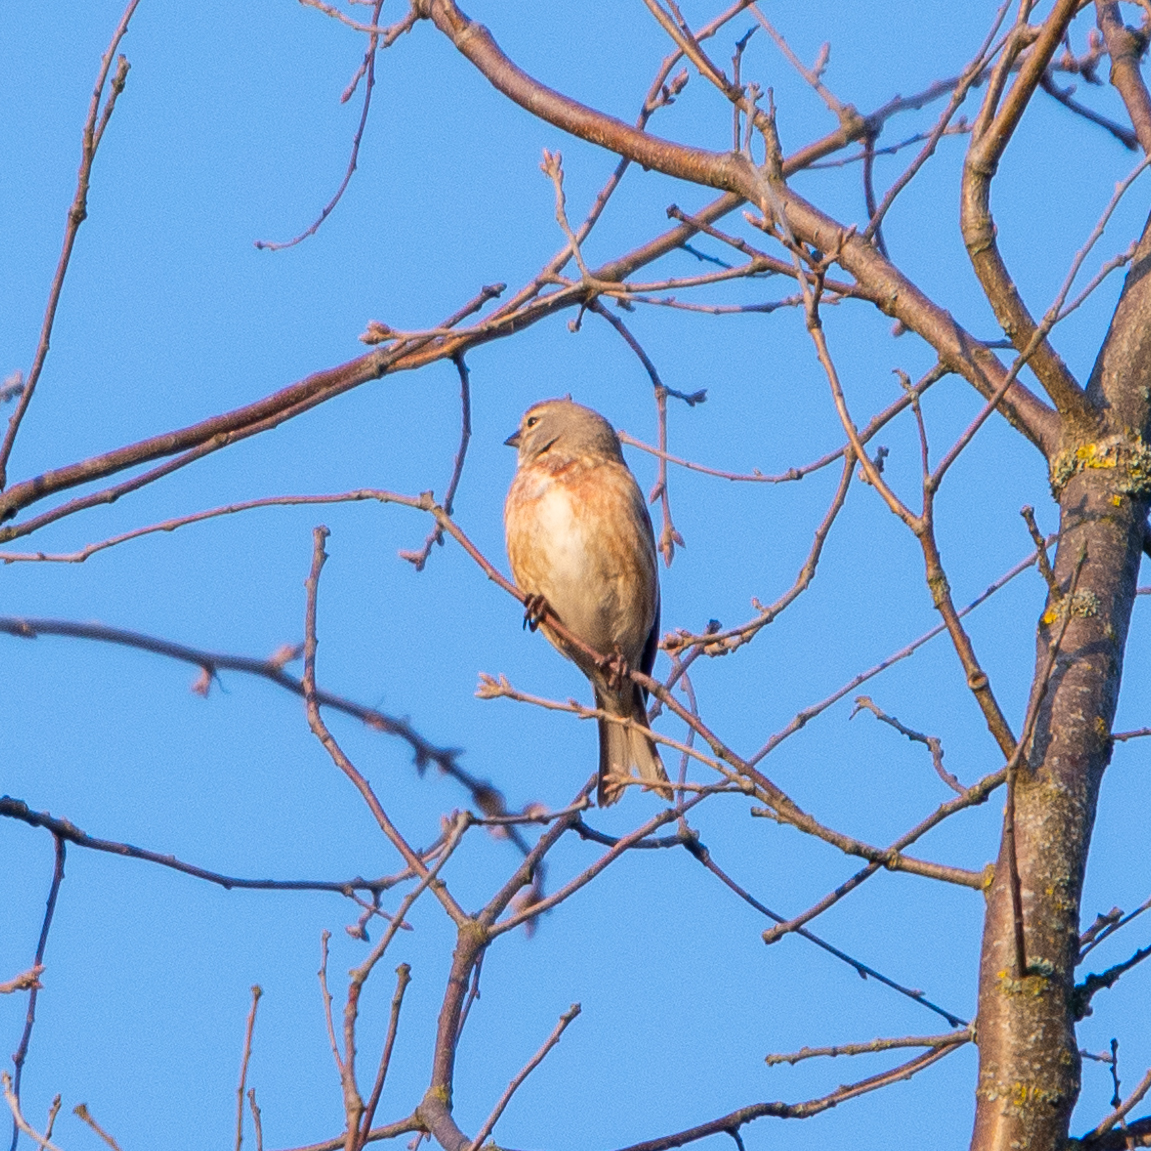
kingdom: Animalia
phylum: Chordata
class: Aves
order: Passeriformes
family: Fringillidae
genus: Linaria
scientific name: Linaria cannabina
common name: Common linnet
